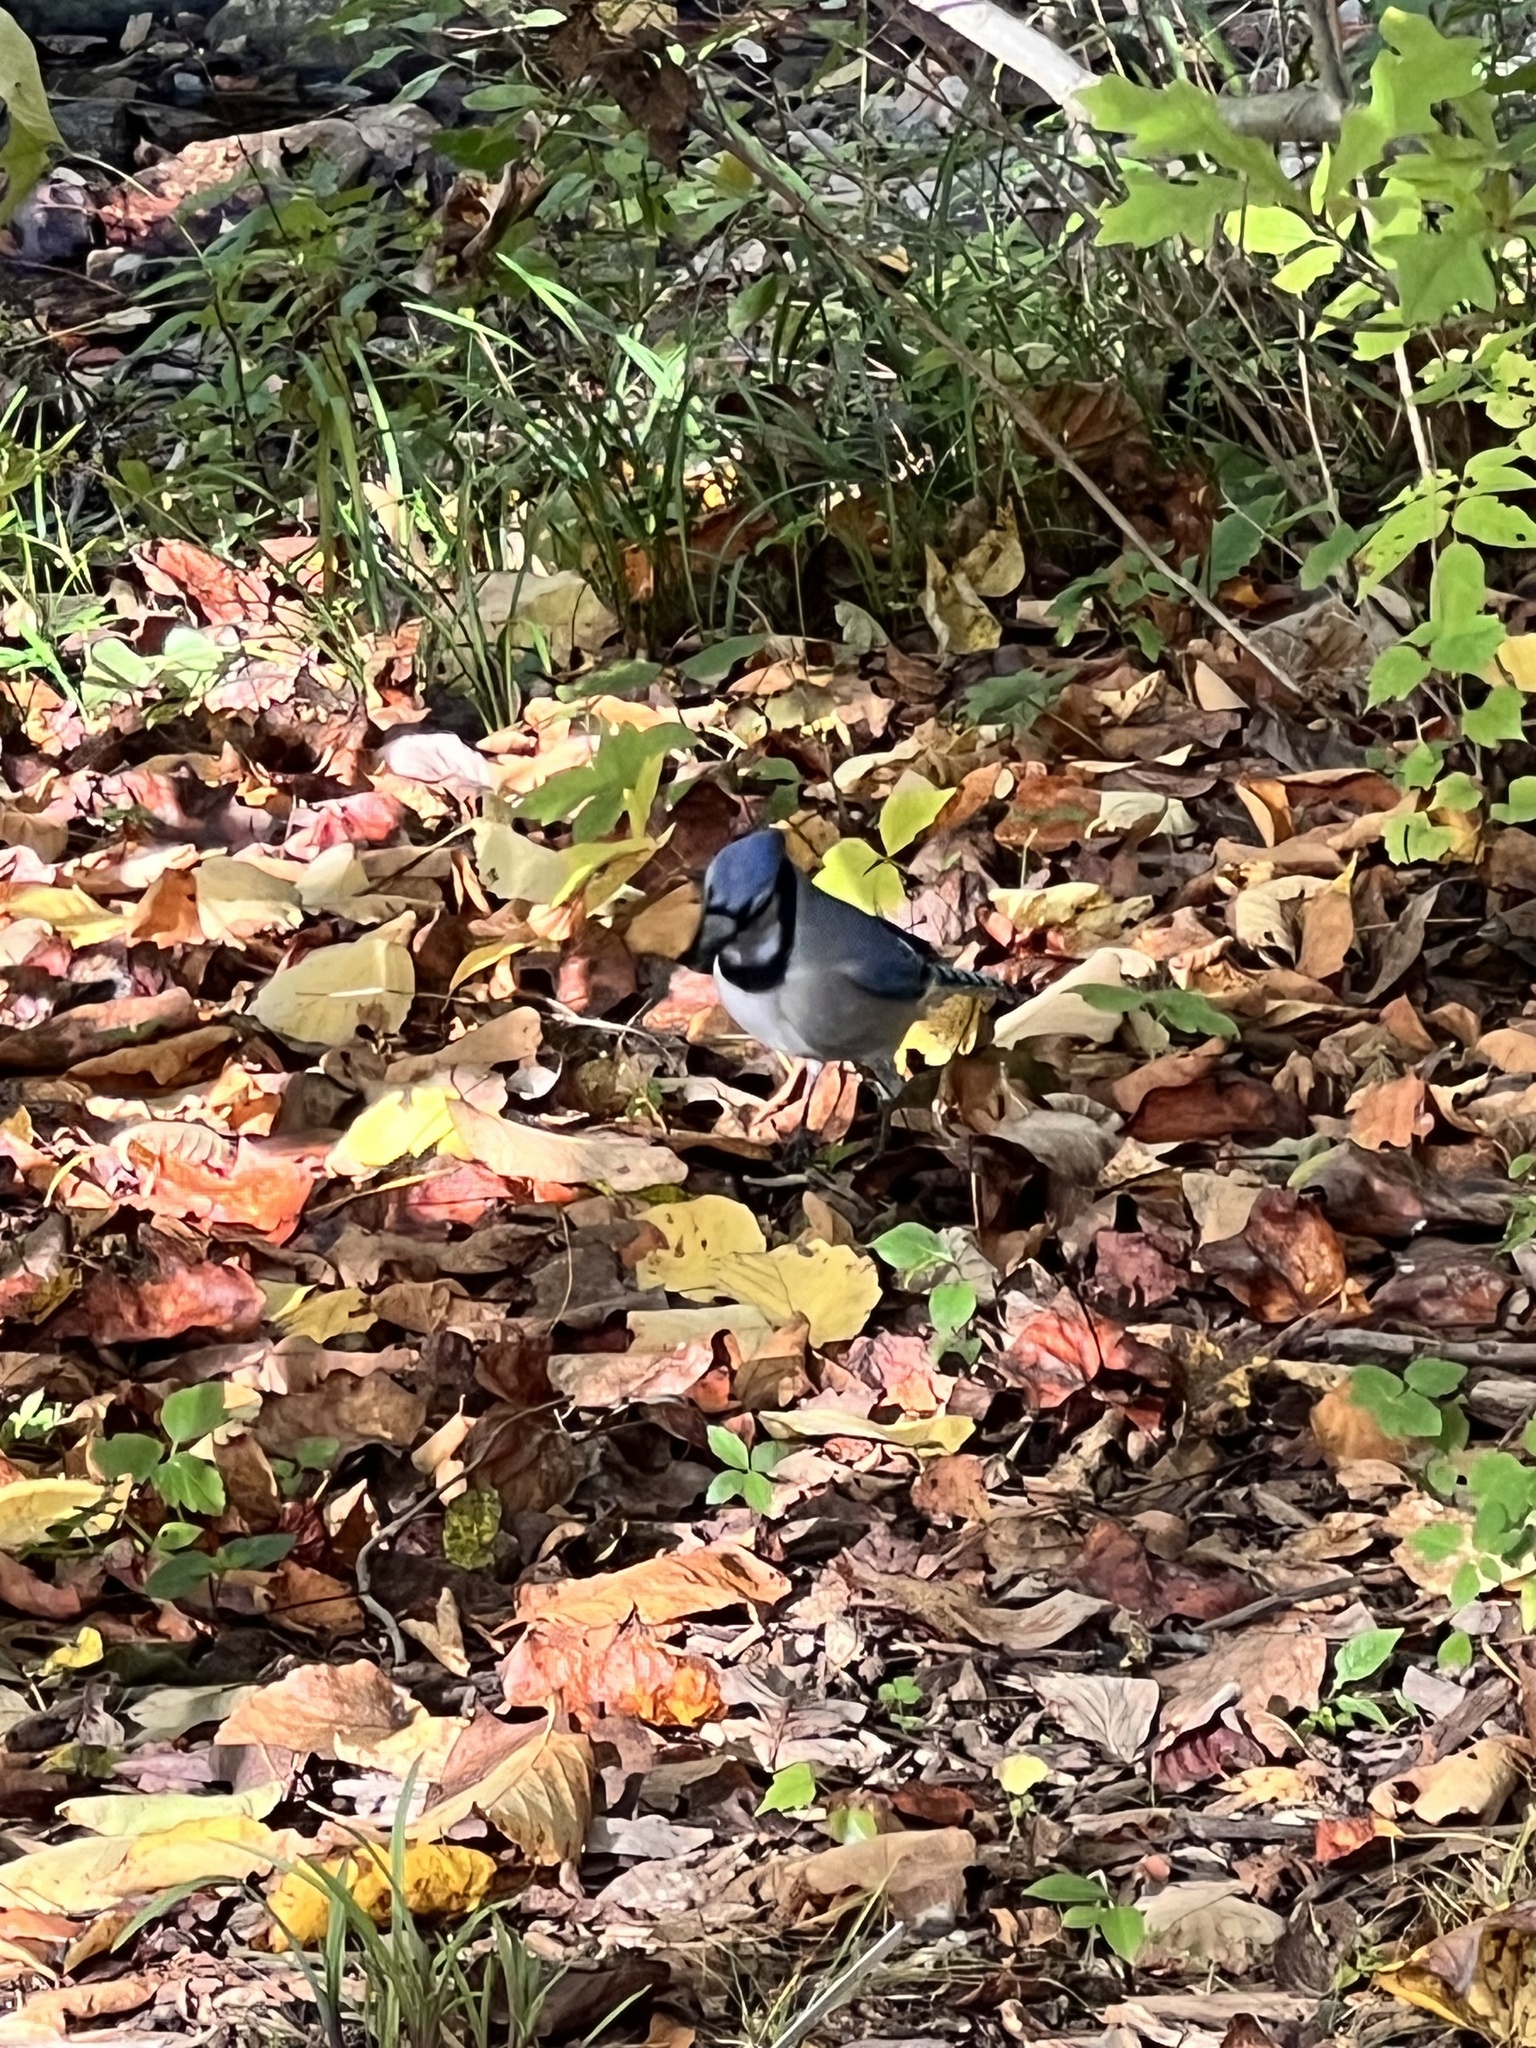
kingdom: Animalia
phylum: Chordata
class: Aves
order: Passeriformes
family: Corvidae
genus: Cyanocitta
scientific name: Cyanocitta cristata
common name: Blue jay
